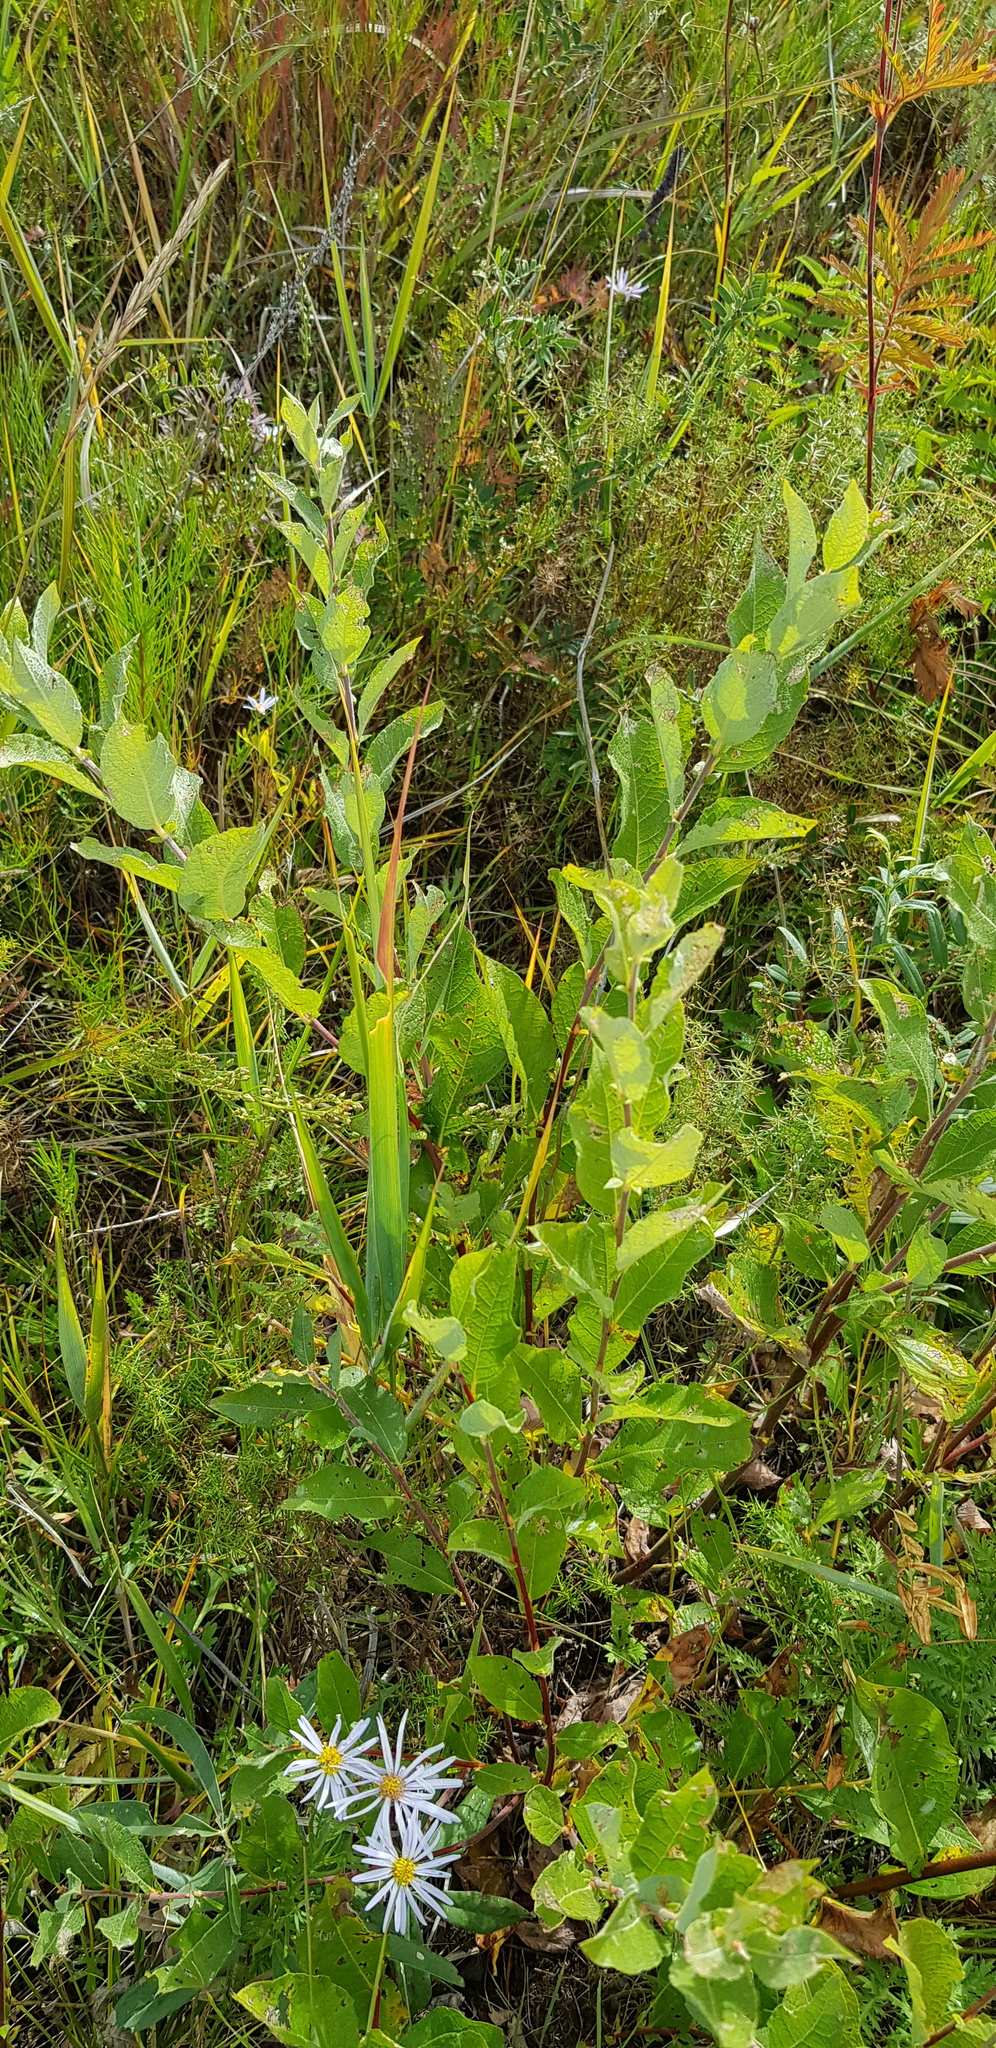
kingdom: Plantae
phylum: Tracheophyta
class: Magnoliopsida
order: Malpighiales
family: Salicaceae
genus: Salix
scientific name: Salix cinerea
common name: Common sallow
